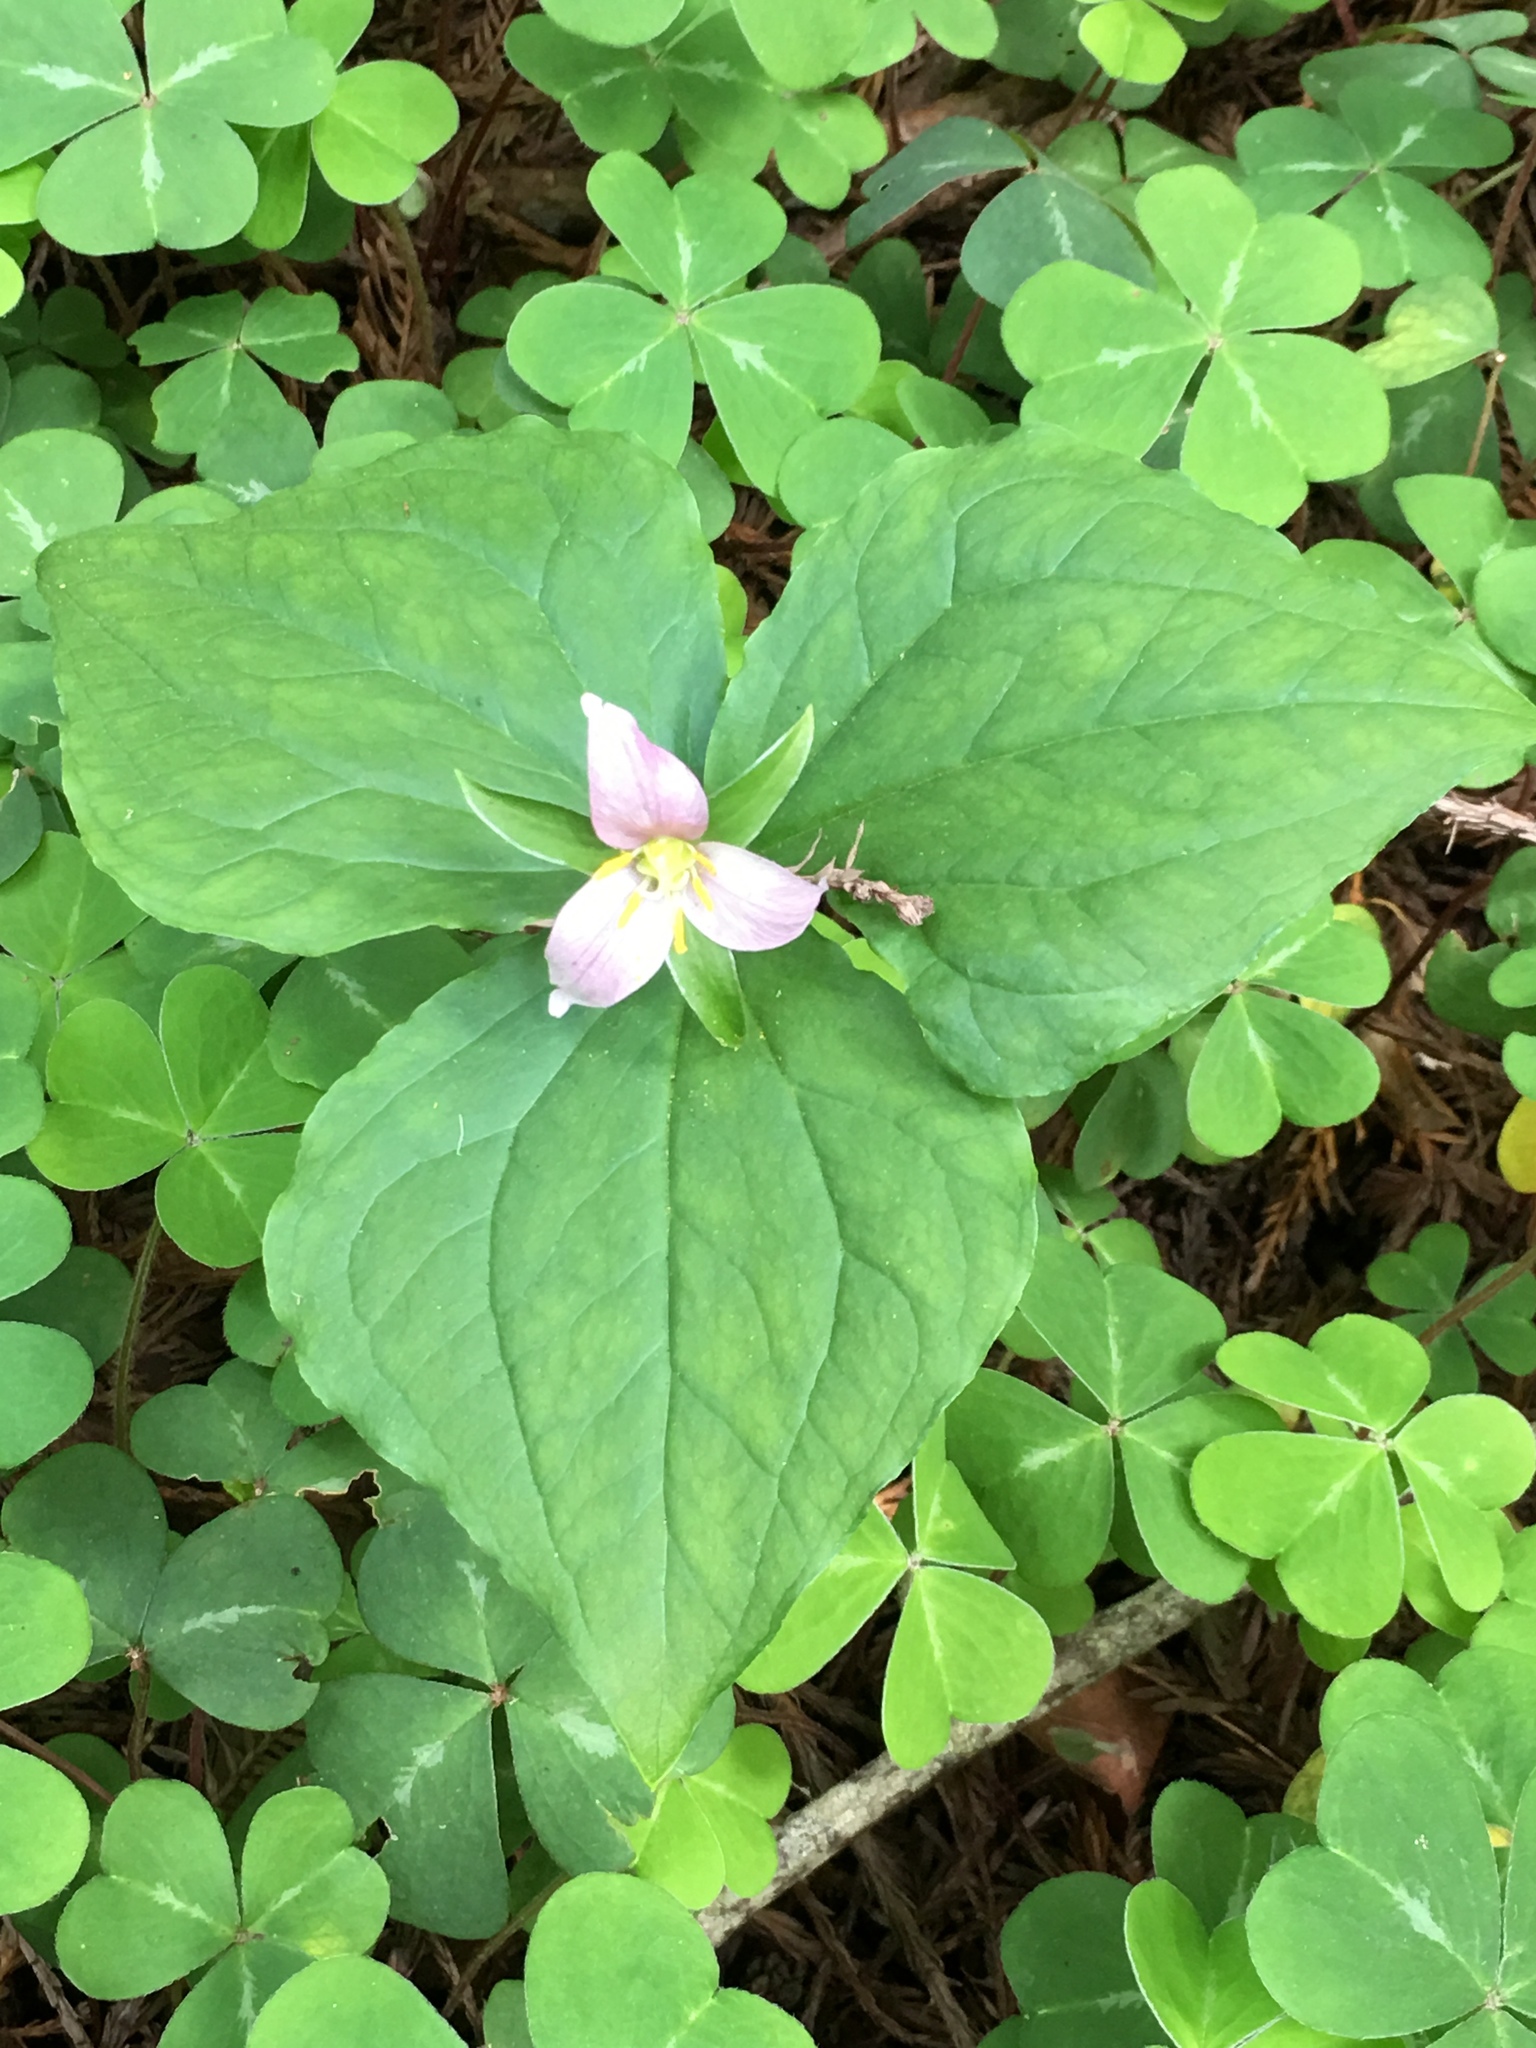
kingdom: Plantae
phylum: Tracheophyta
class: Liliopsida
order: Liliales
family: Melanthiaceae
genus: Trillium
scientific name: Trillium ovatum
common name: Pacific trillium
